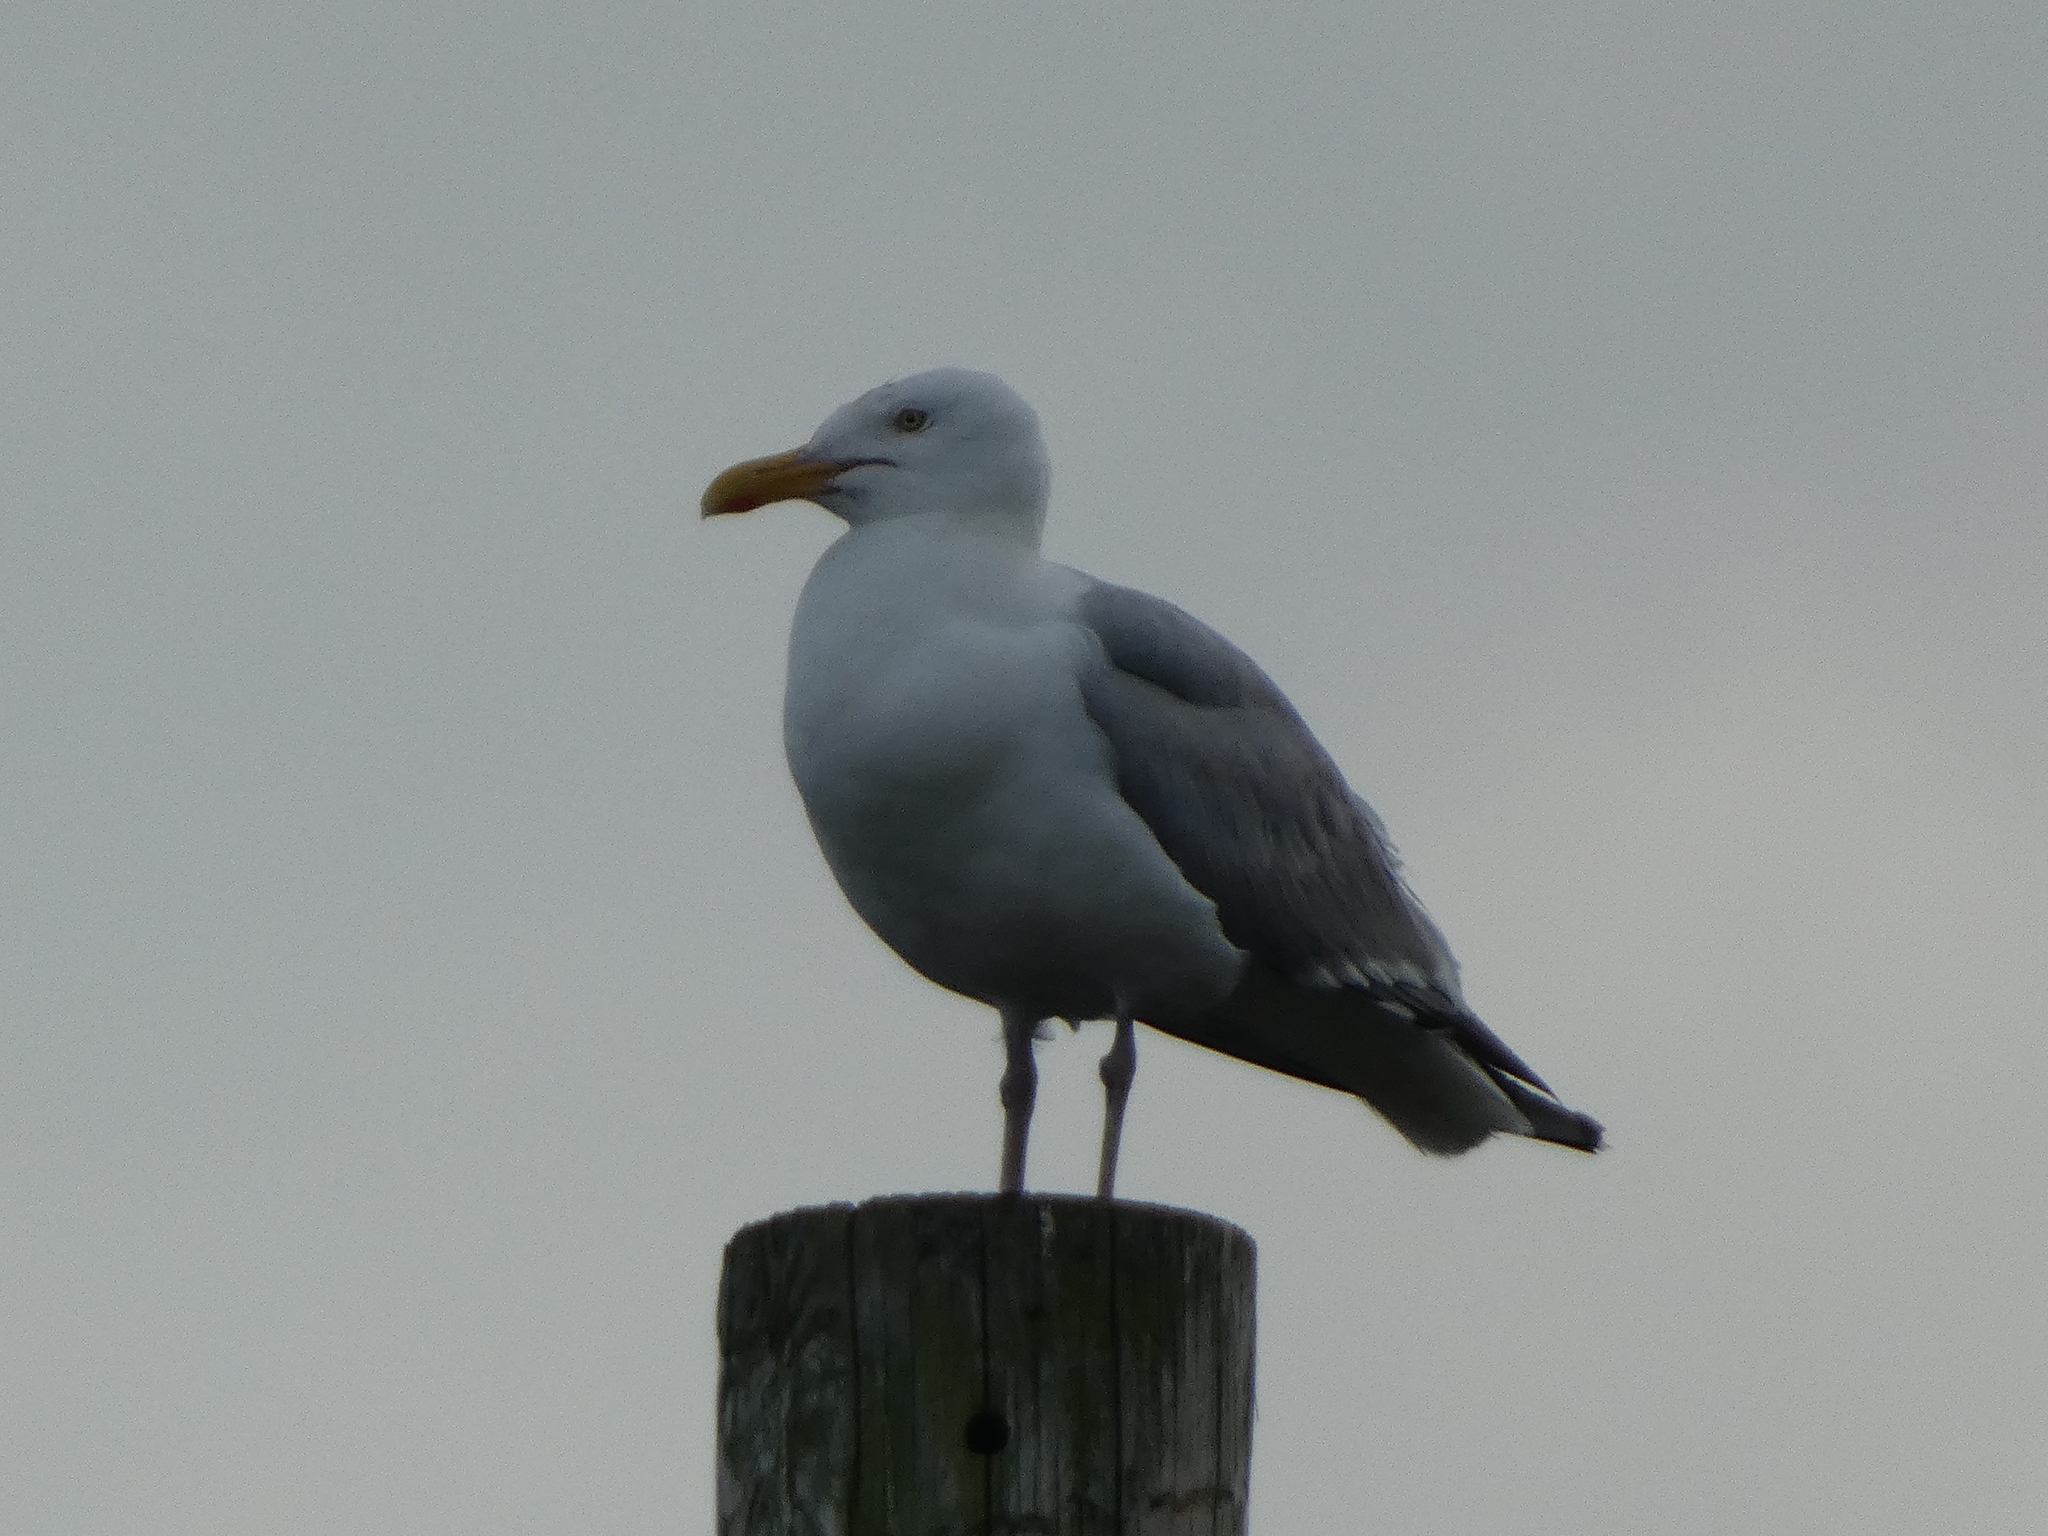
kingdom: Animalia
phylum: Chordata
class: Aves
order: Charadriiformes
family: Laridae
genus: Larus
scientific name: Larus argentatus
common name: Herring gull
